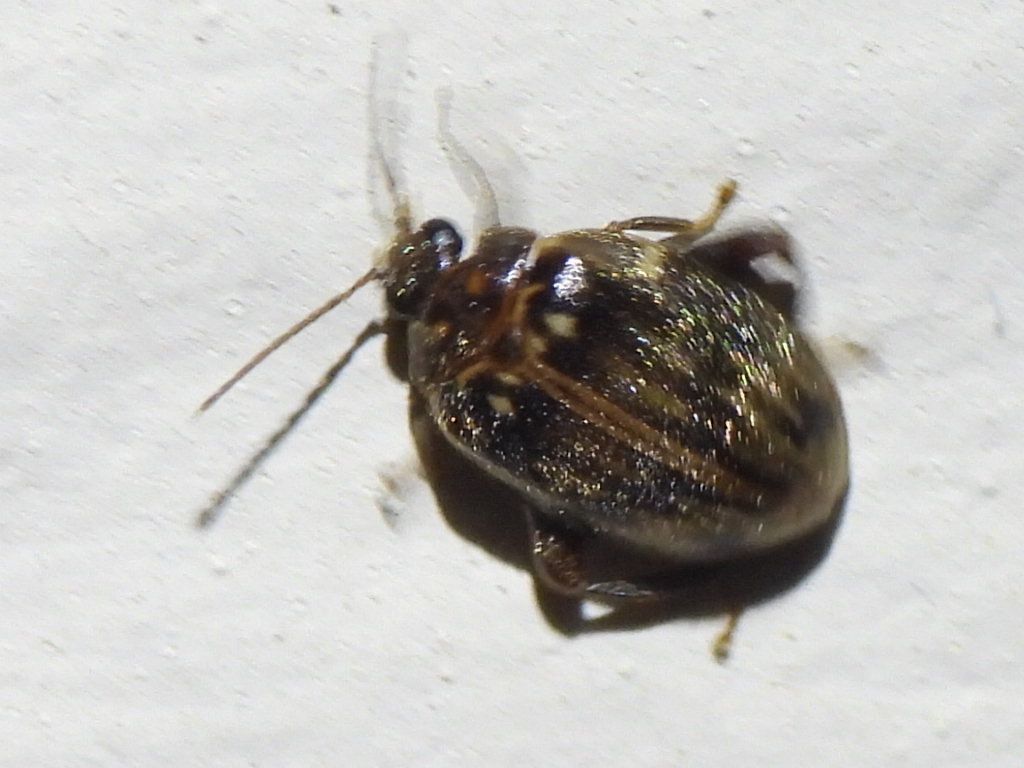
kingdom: Animalia
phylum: Arthropoda
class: Insecta
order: Coleoptera
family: Scirtidae
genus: Ora
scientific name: Ora texana
